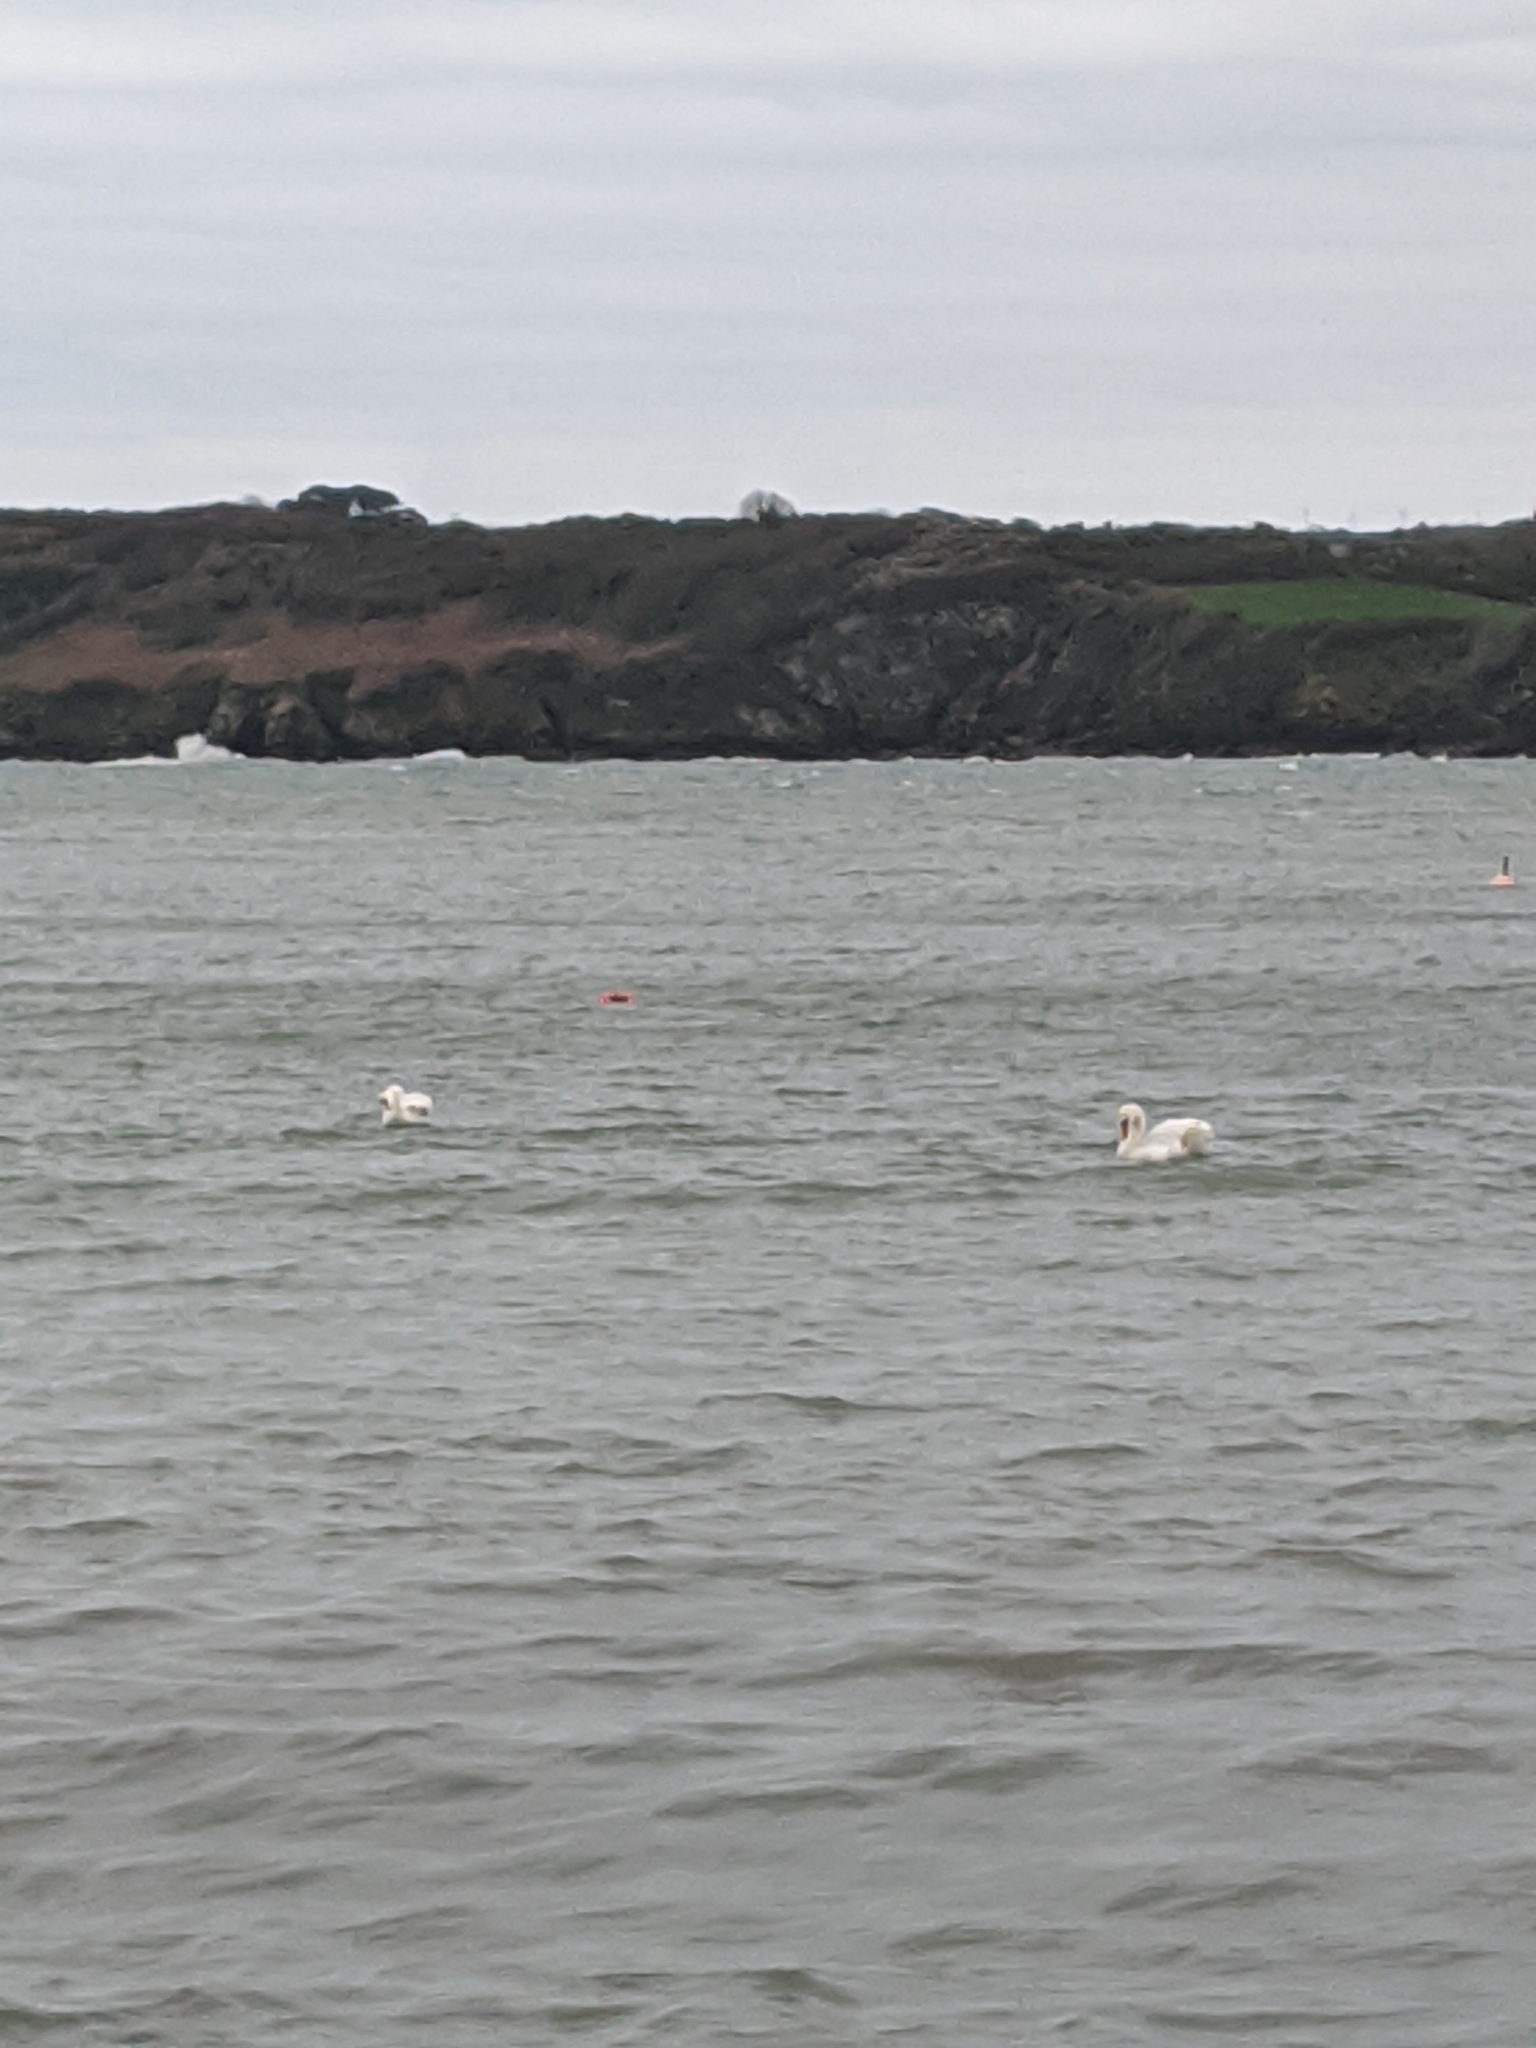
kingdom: Animalia
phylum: Chordata
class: Aves
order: Anseriformes
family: Anatidae
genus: Cygnus
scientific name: Cygnus olor
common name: Mute swan
